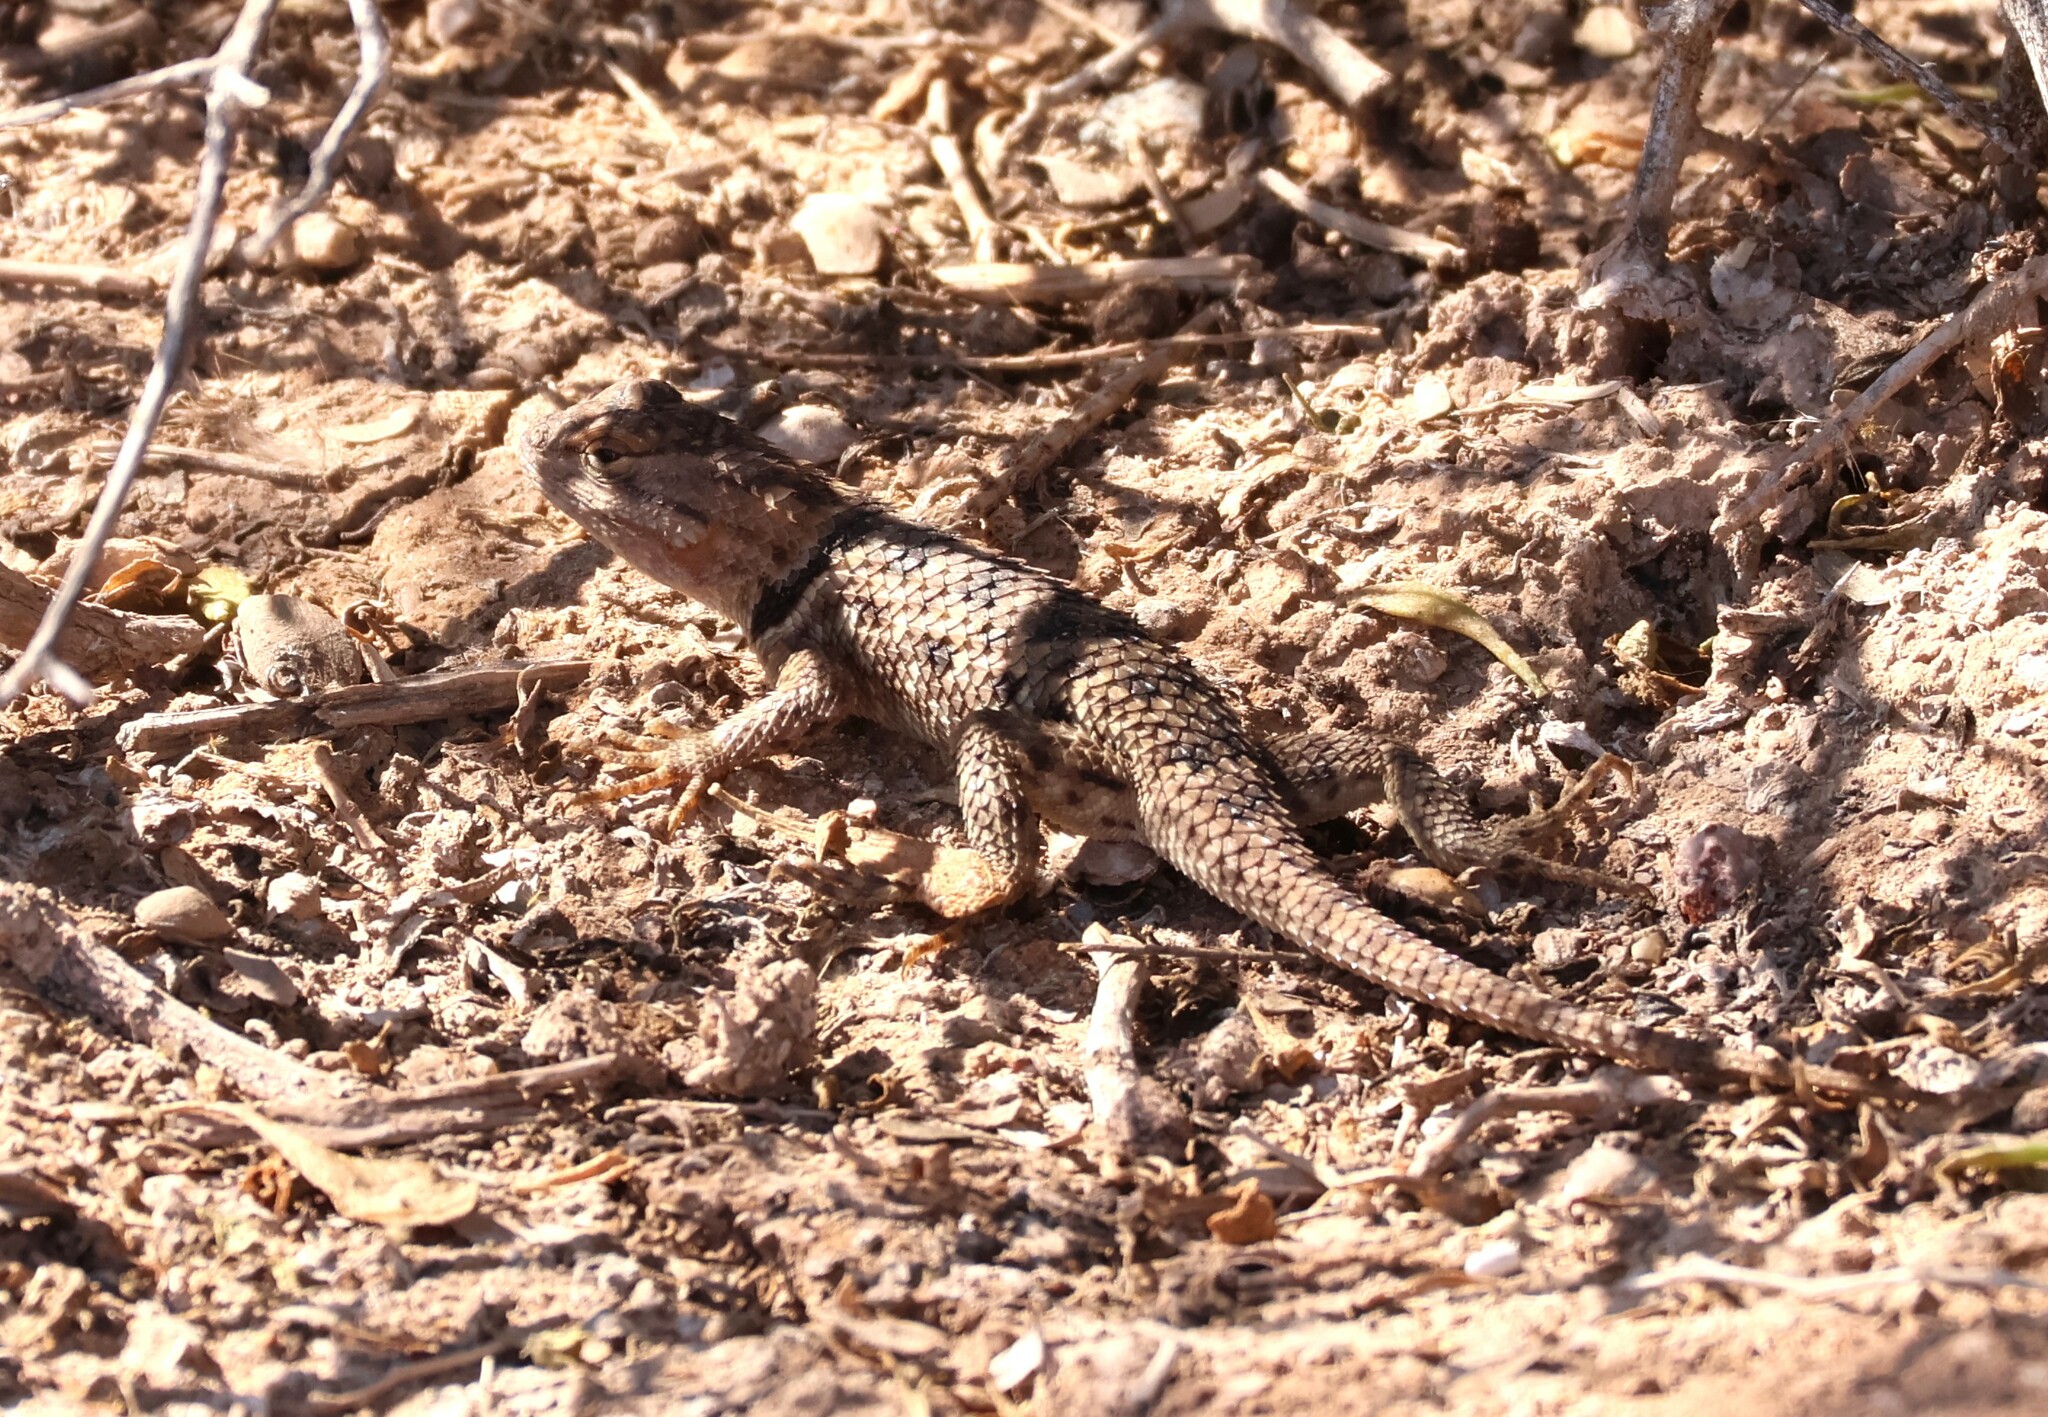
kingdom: Animalia
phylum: Chordata
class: Squamata
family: Phrynosomatidae
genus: Sceloporus
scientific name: Sceloporus magister
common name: Desert spiny lizard
